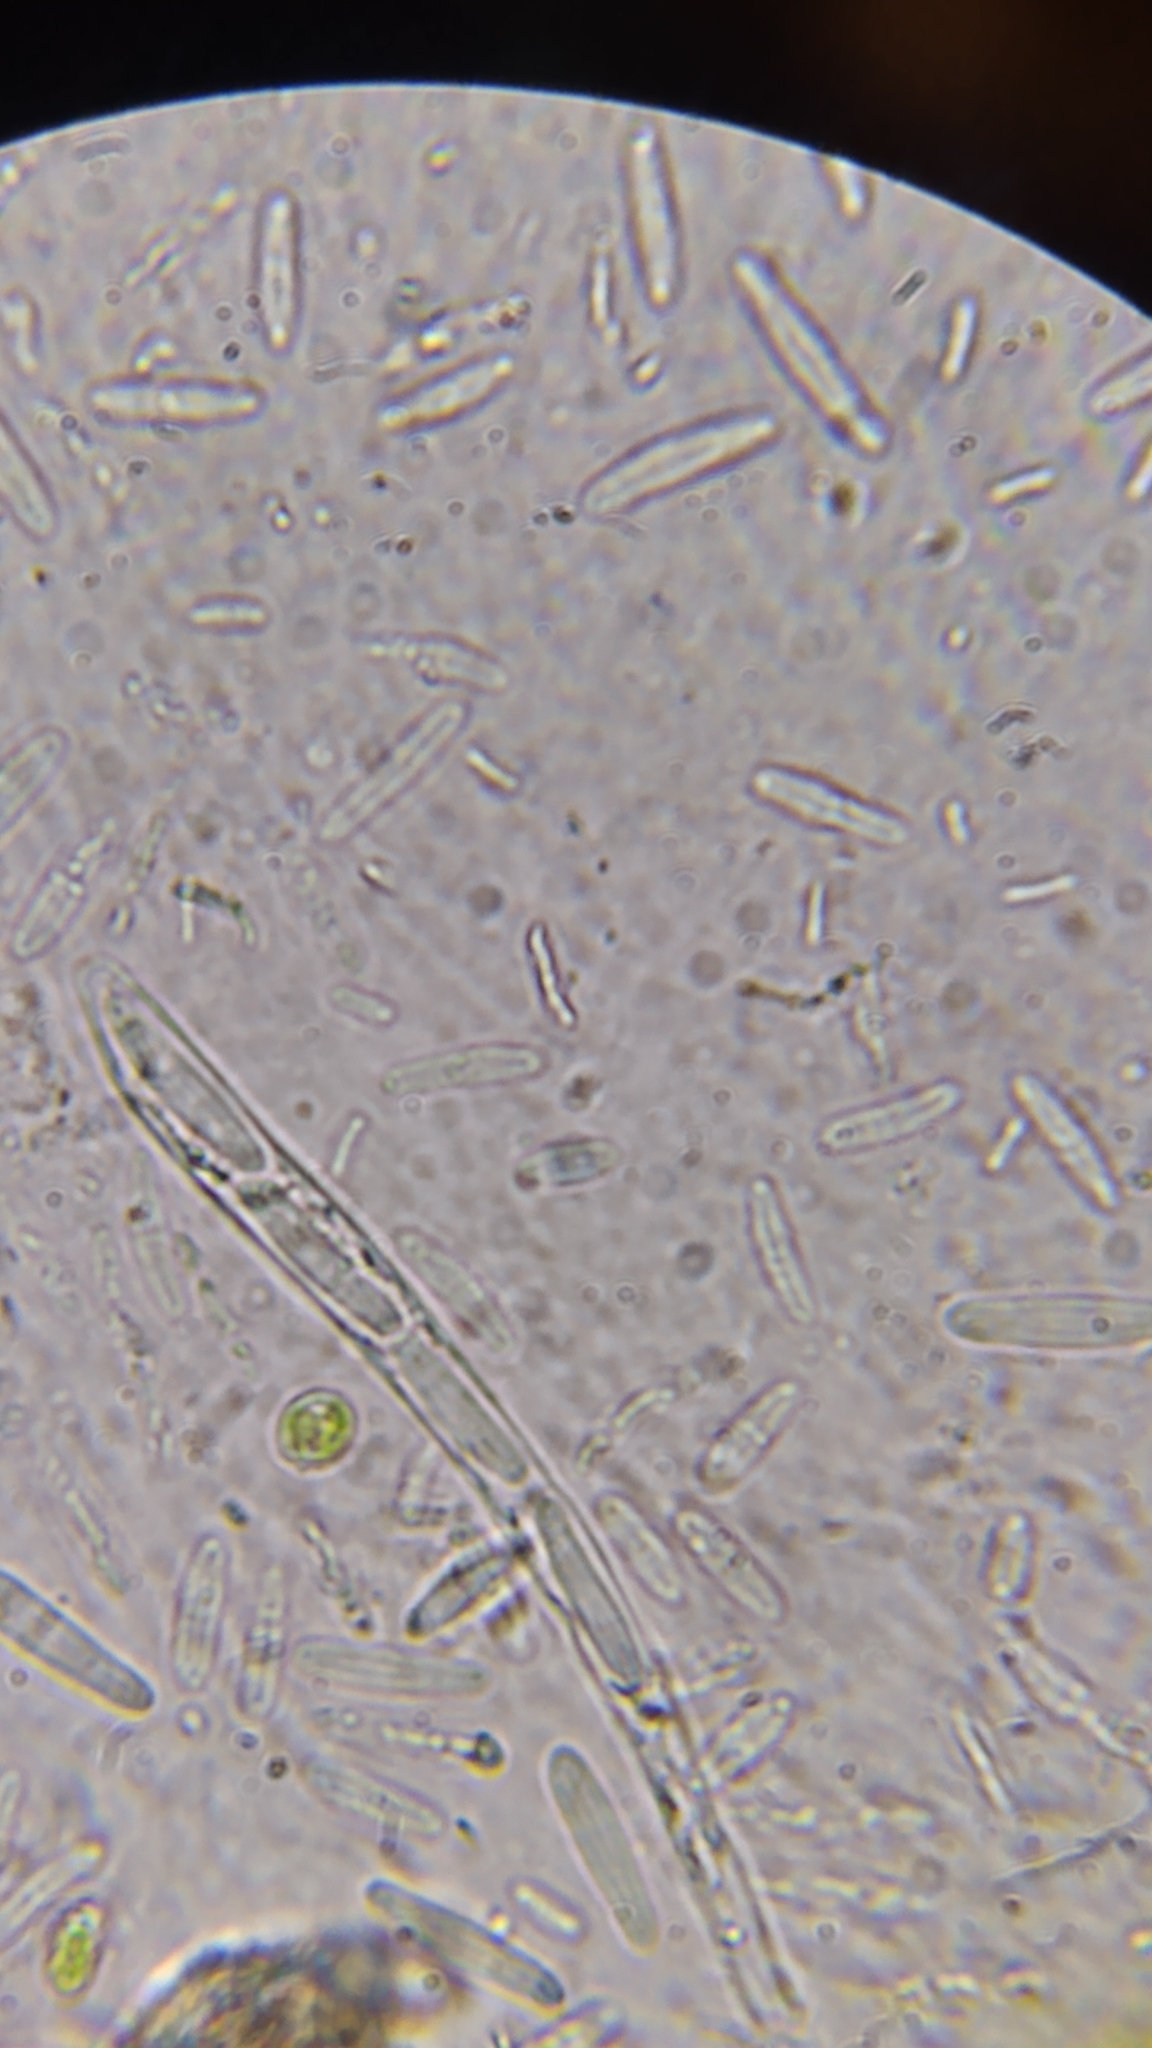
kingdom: Fungi
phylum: Ascomycota
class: Leotiomycetes
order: Helotiales
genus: Angelina
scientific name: Angelina rufescens
